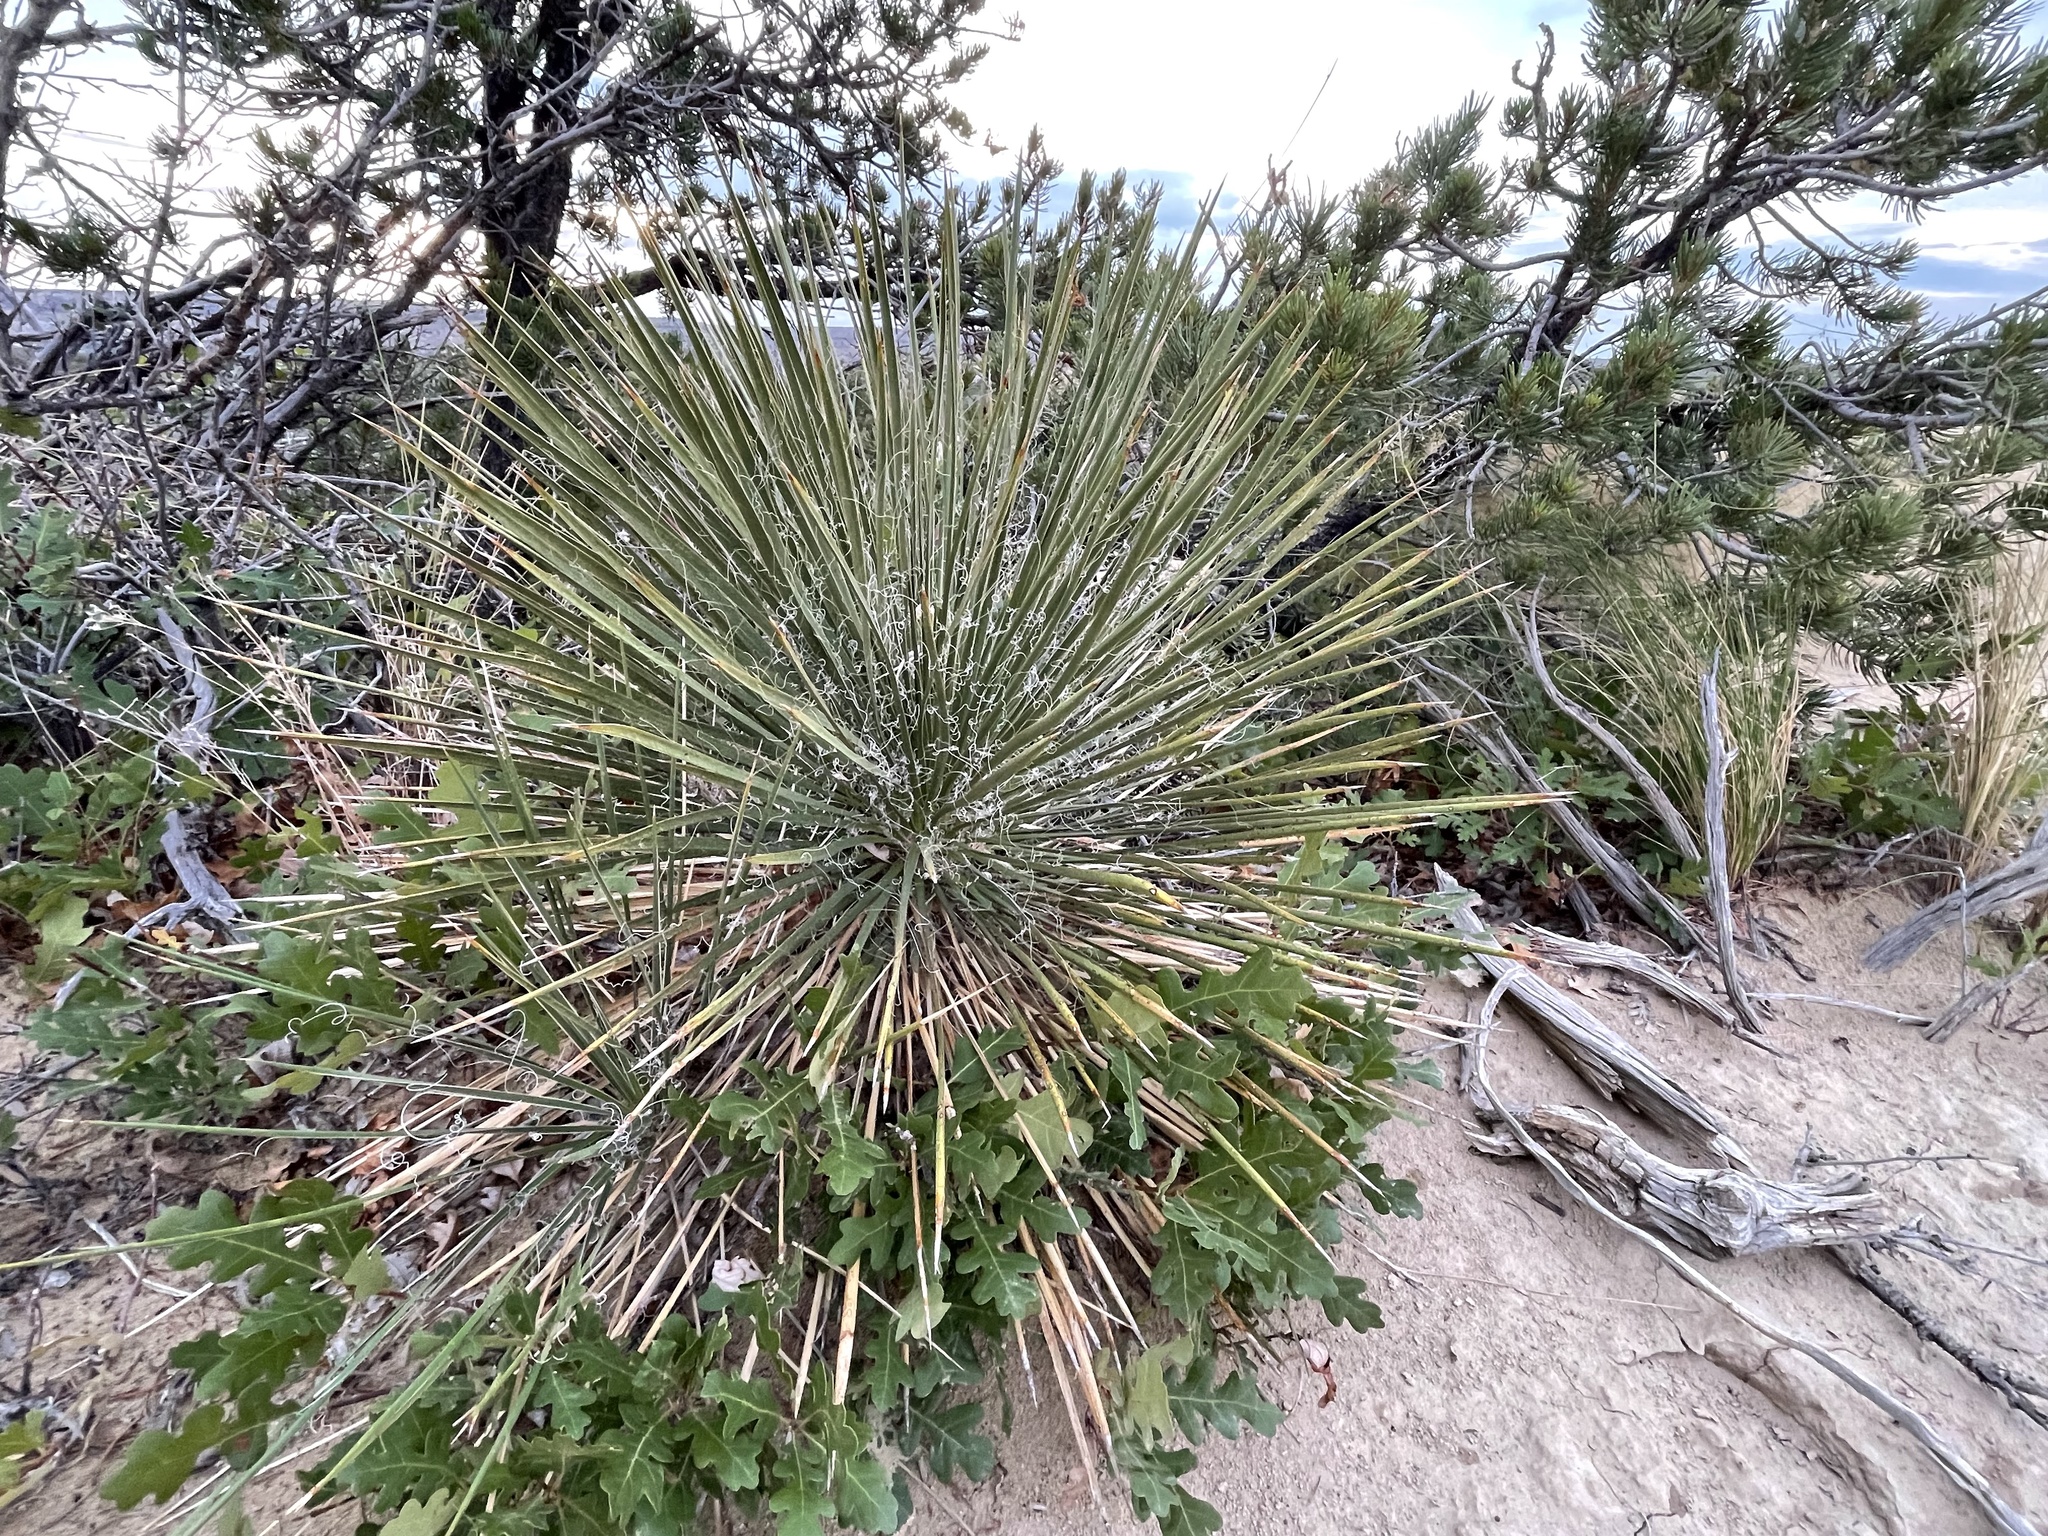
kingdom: Plantae
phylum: Tracheophyta
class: Magnoliopsida
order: Fagales
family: Fagaceae
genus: Quercus
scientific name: Quercus gambelii
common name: Gambel oak
